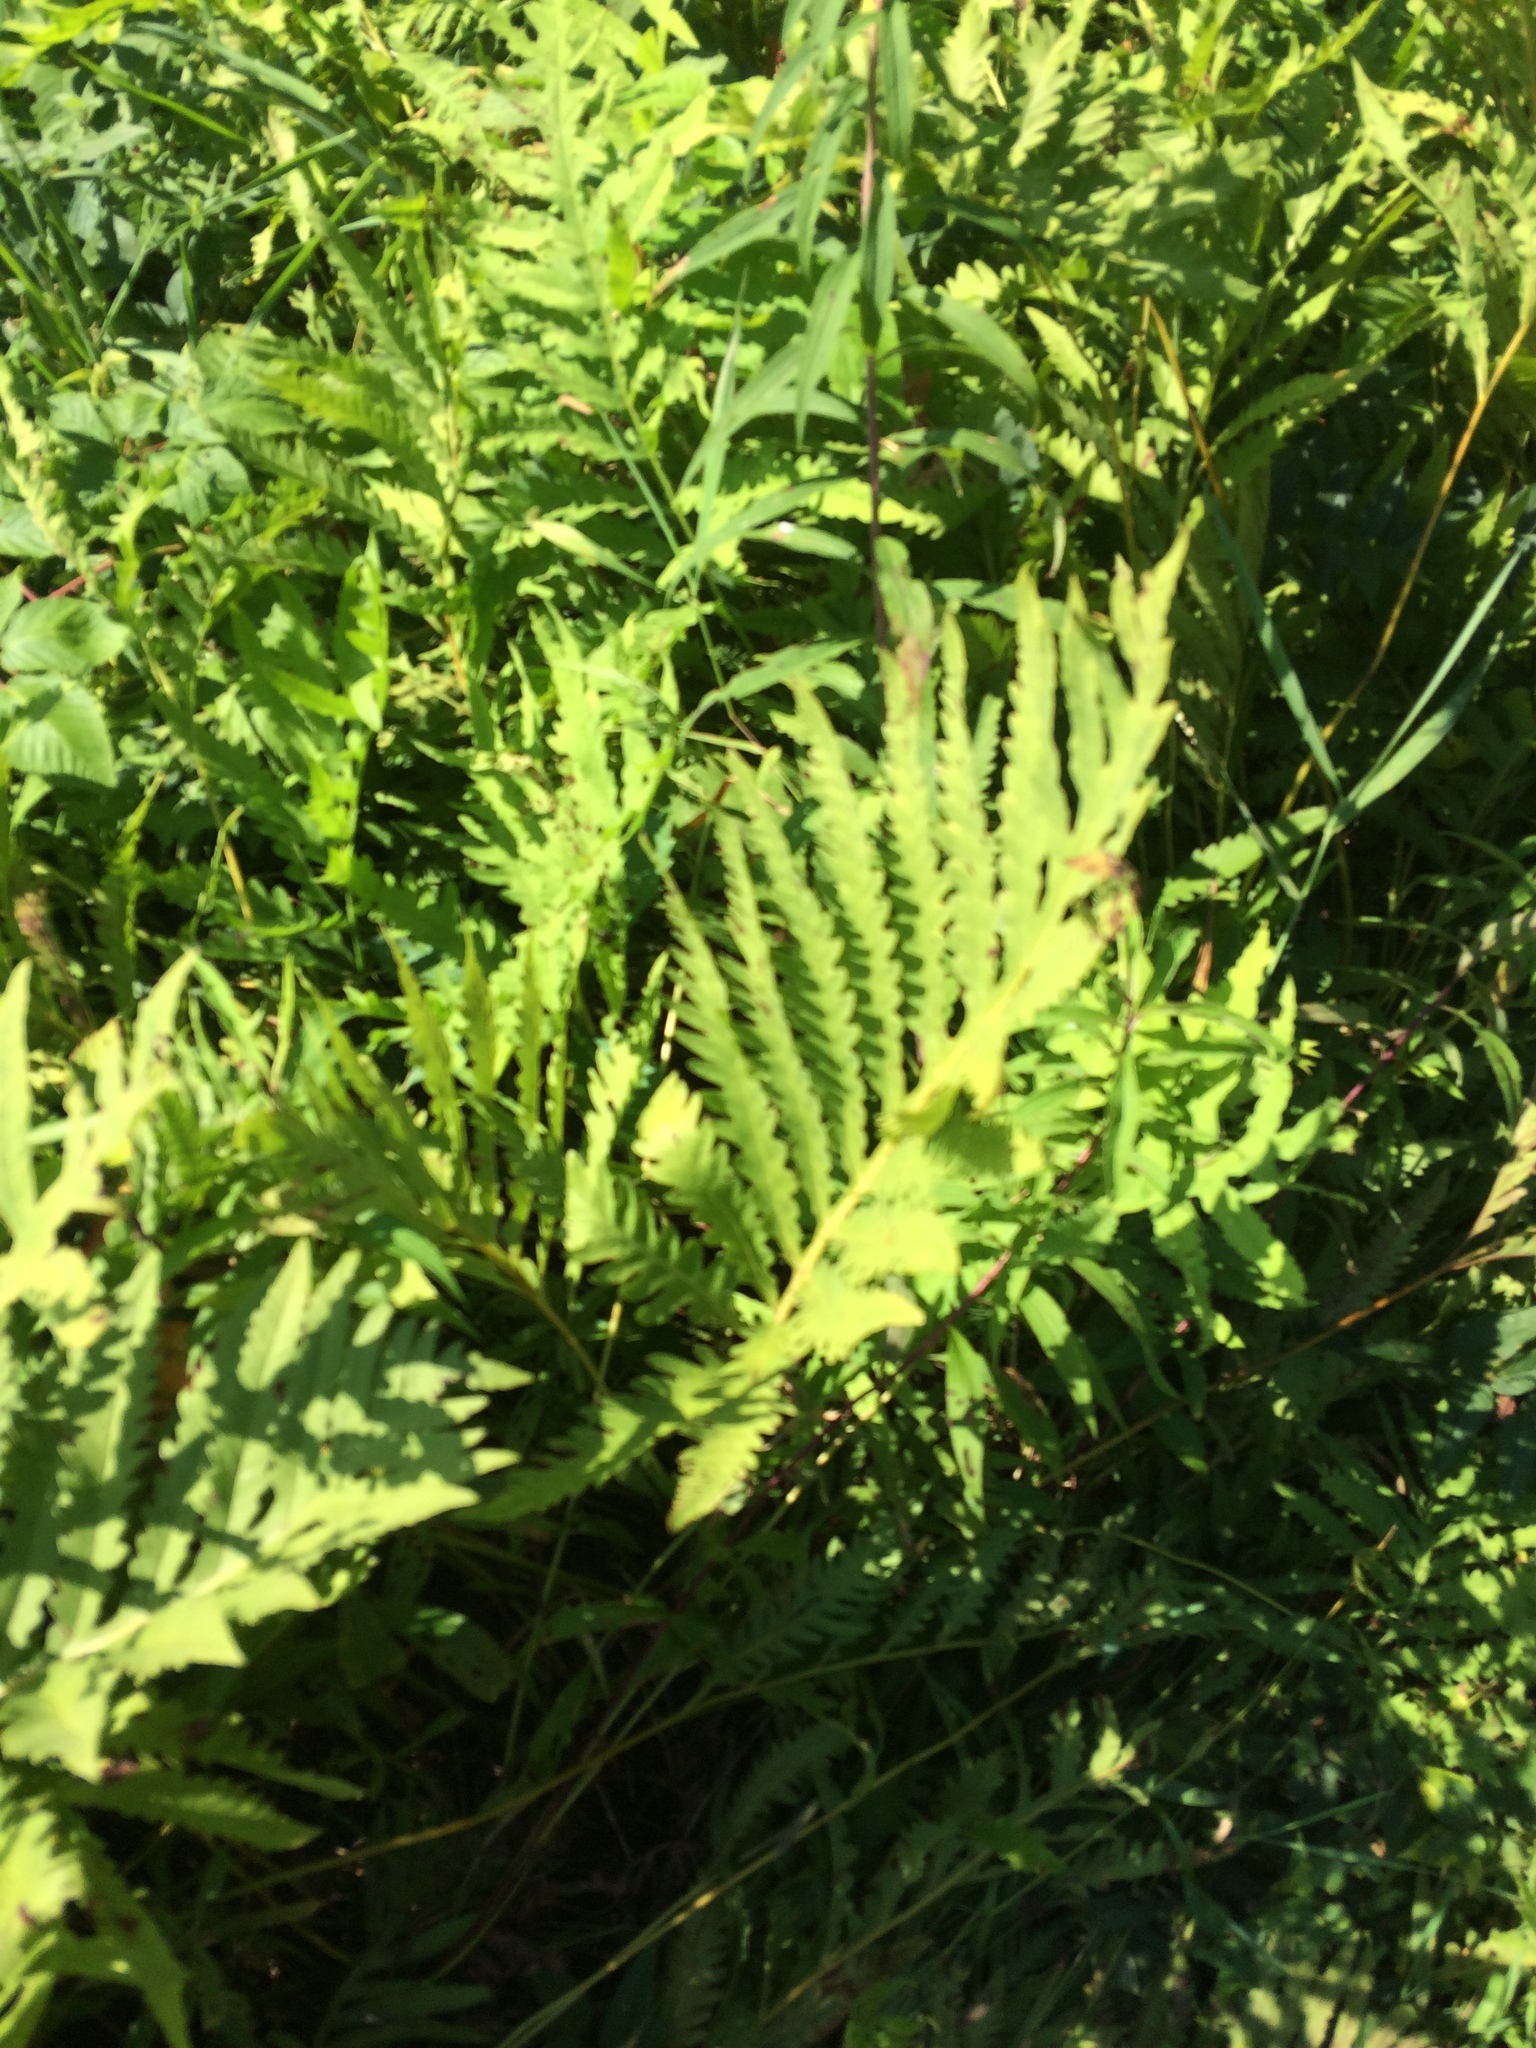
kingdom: Plantae
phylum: Tracheophyta
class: Polypodiopsida
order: Polypodiales
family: Onocleaceae
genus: Onoclea
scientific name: Onoclea sensibilis
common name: Sensitive fern
